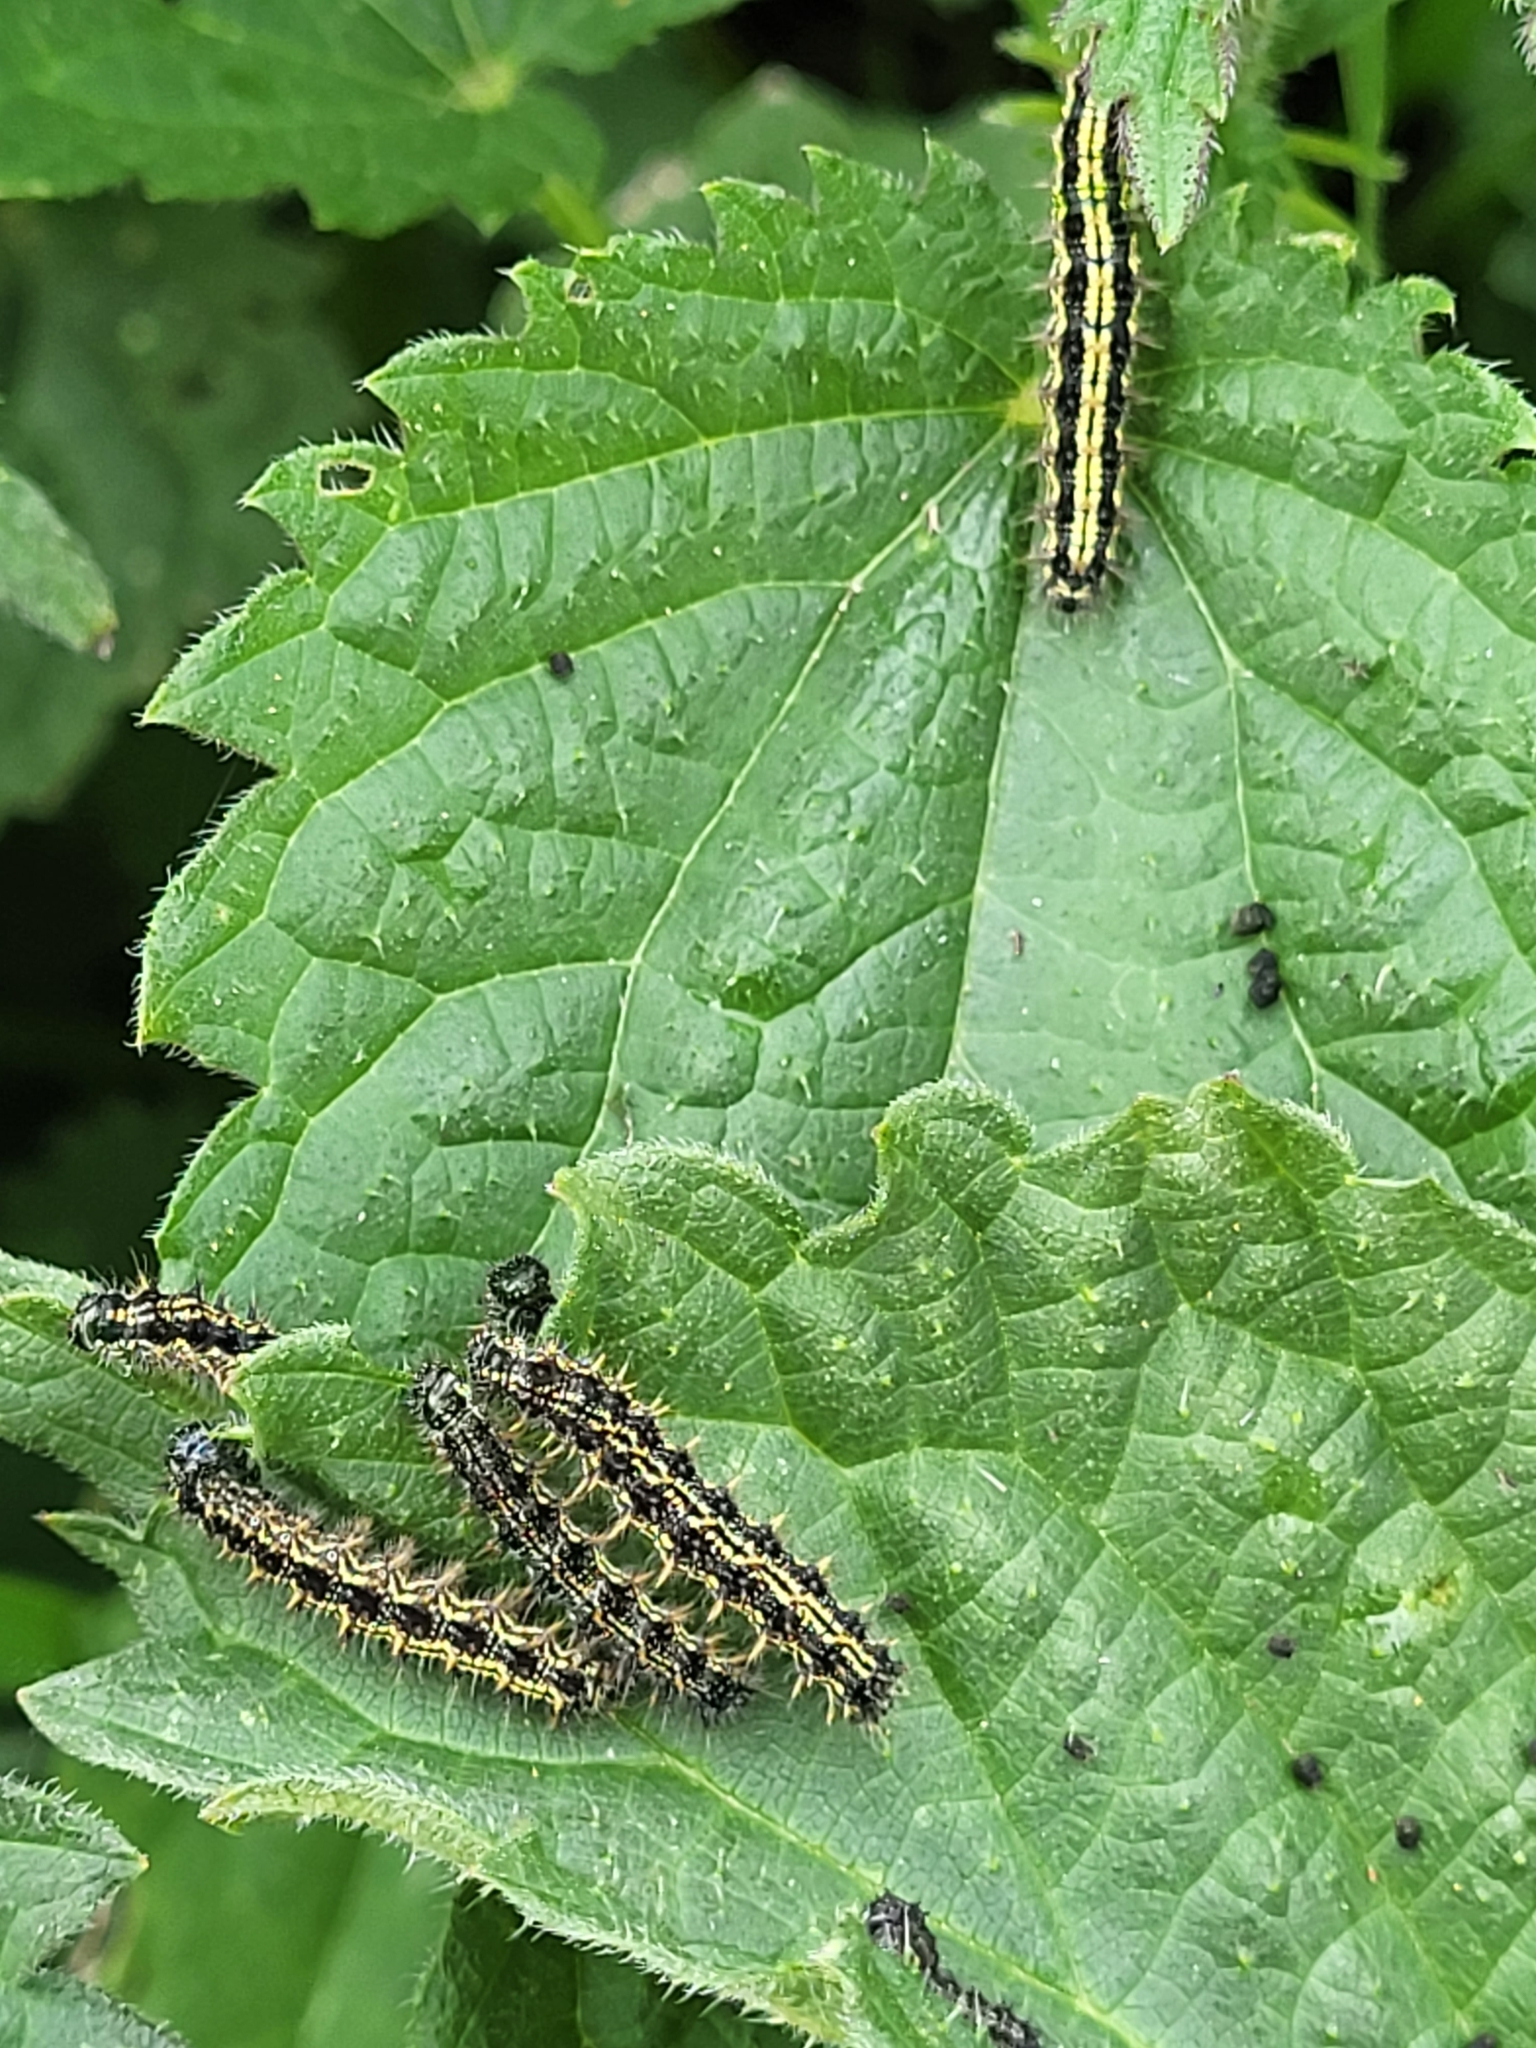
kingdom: Animalia
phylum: Arthropoda
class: Insecta
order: Lepidoptera
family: Nymphalidae
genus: Aglais
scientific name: Aglais urticae
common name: Small tortoiseshell
